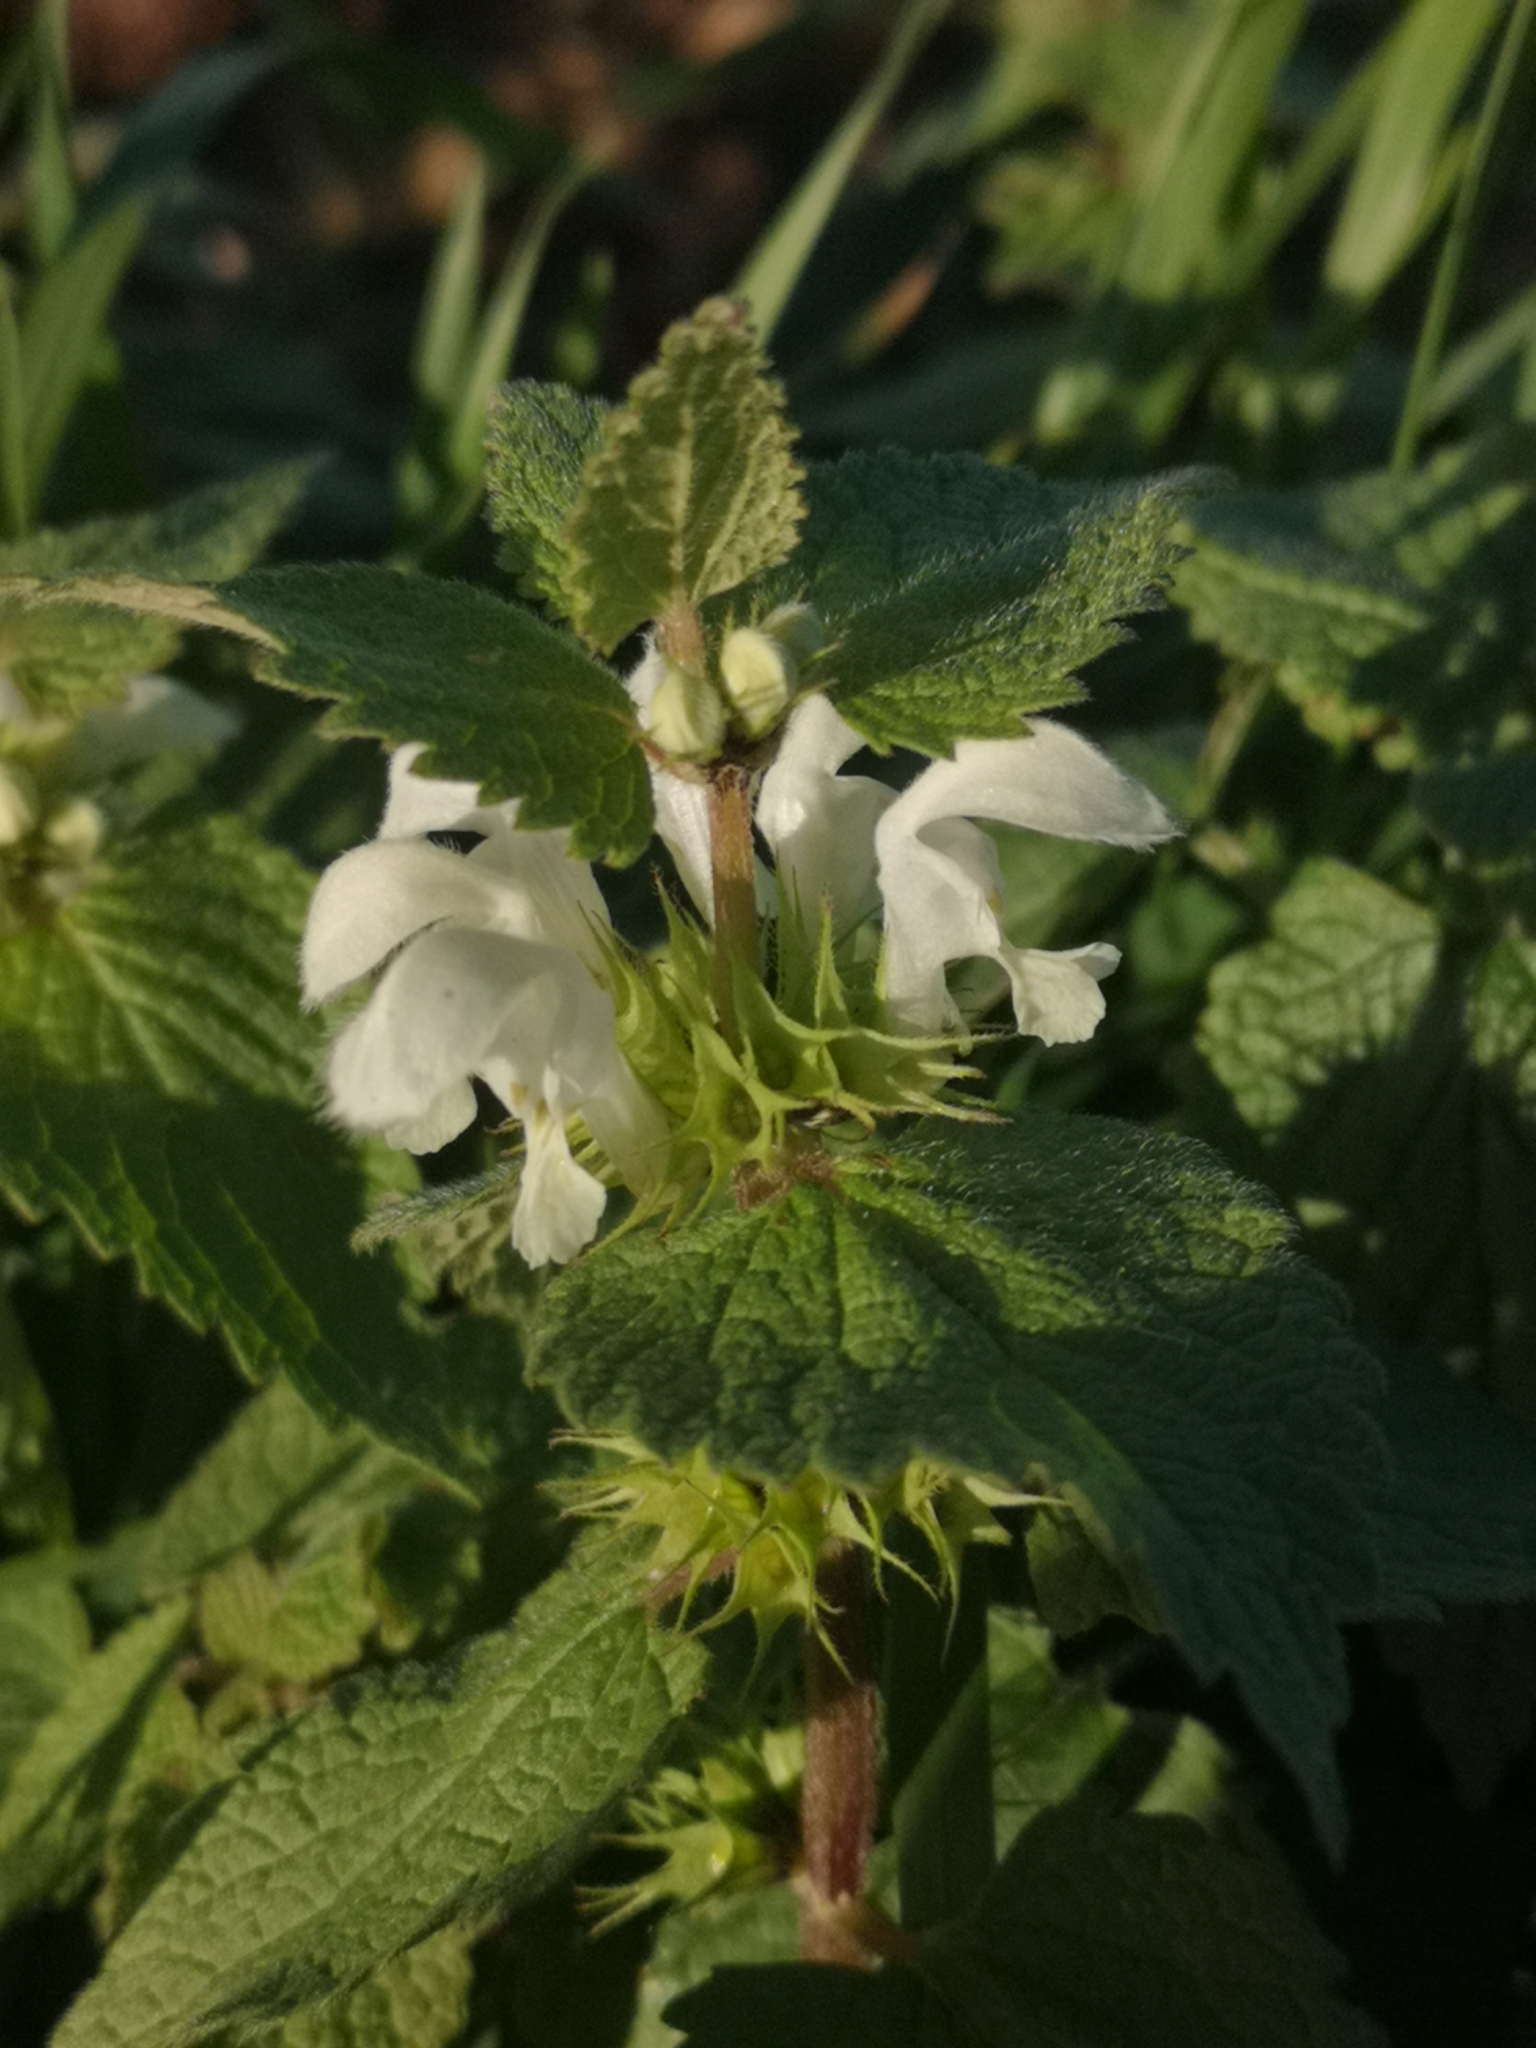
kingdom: Plantae
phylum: Tracheophyta
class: Magnoliopsida
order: Lamiales
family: Lamiaceae
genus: Lamium
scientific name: Lamium album
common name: White dead-nettle
